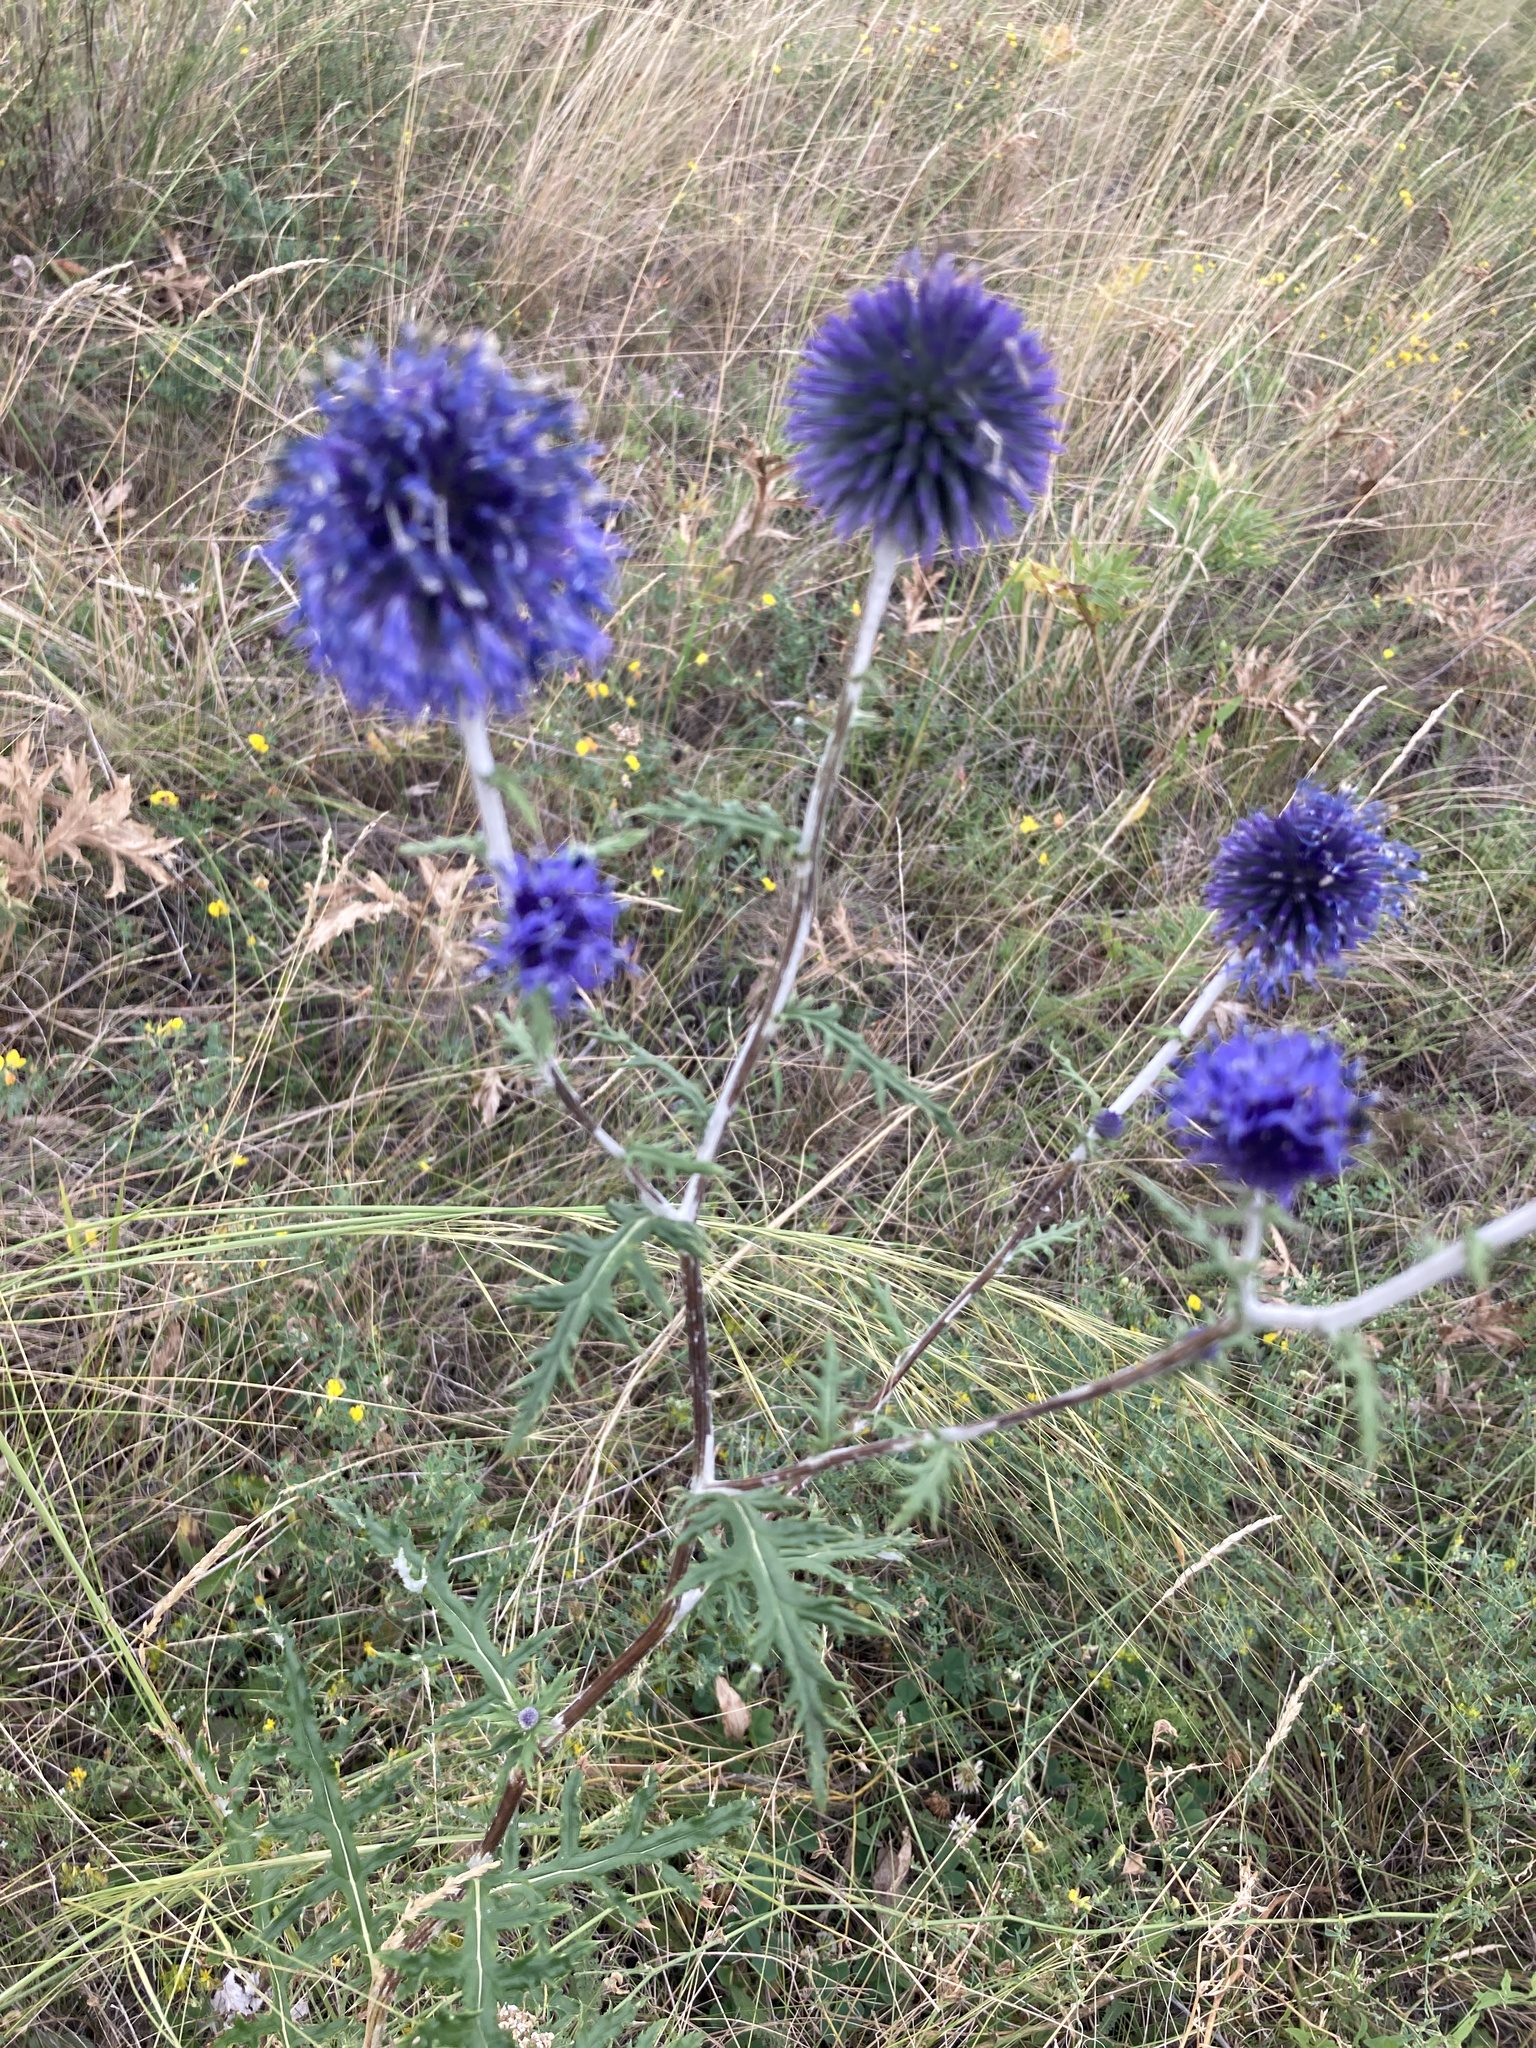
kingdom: Plantae
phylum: Tracheophyta
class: Magnoliopsida
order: Asterales
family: Asteraceae
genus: Echinops
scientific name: Echinops ritro
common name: Globe thistle
